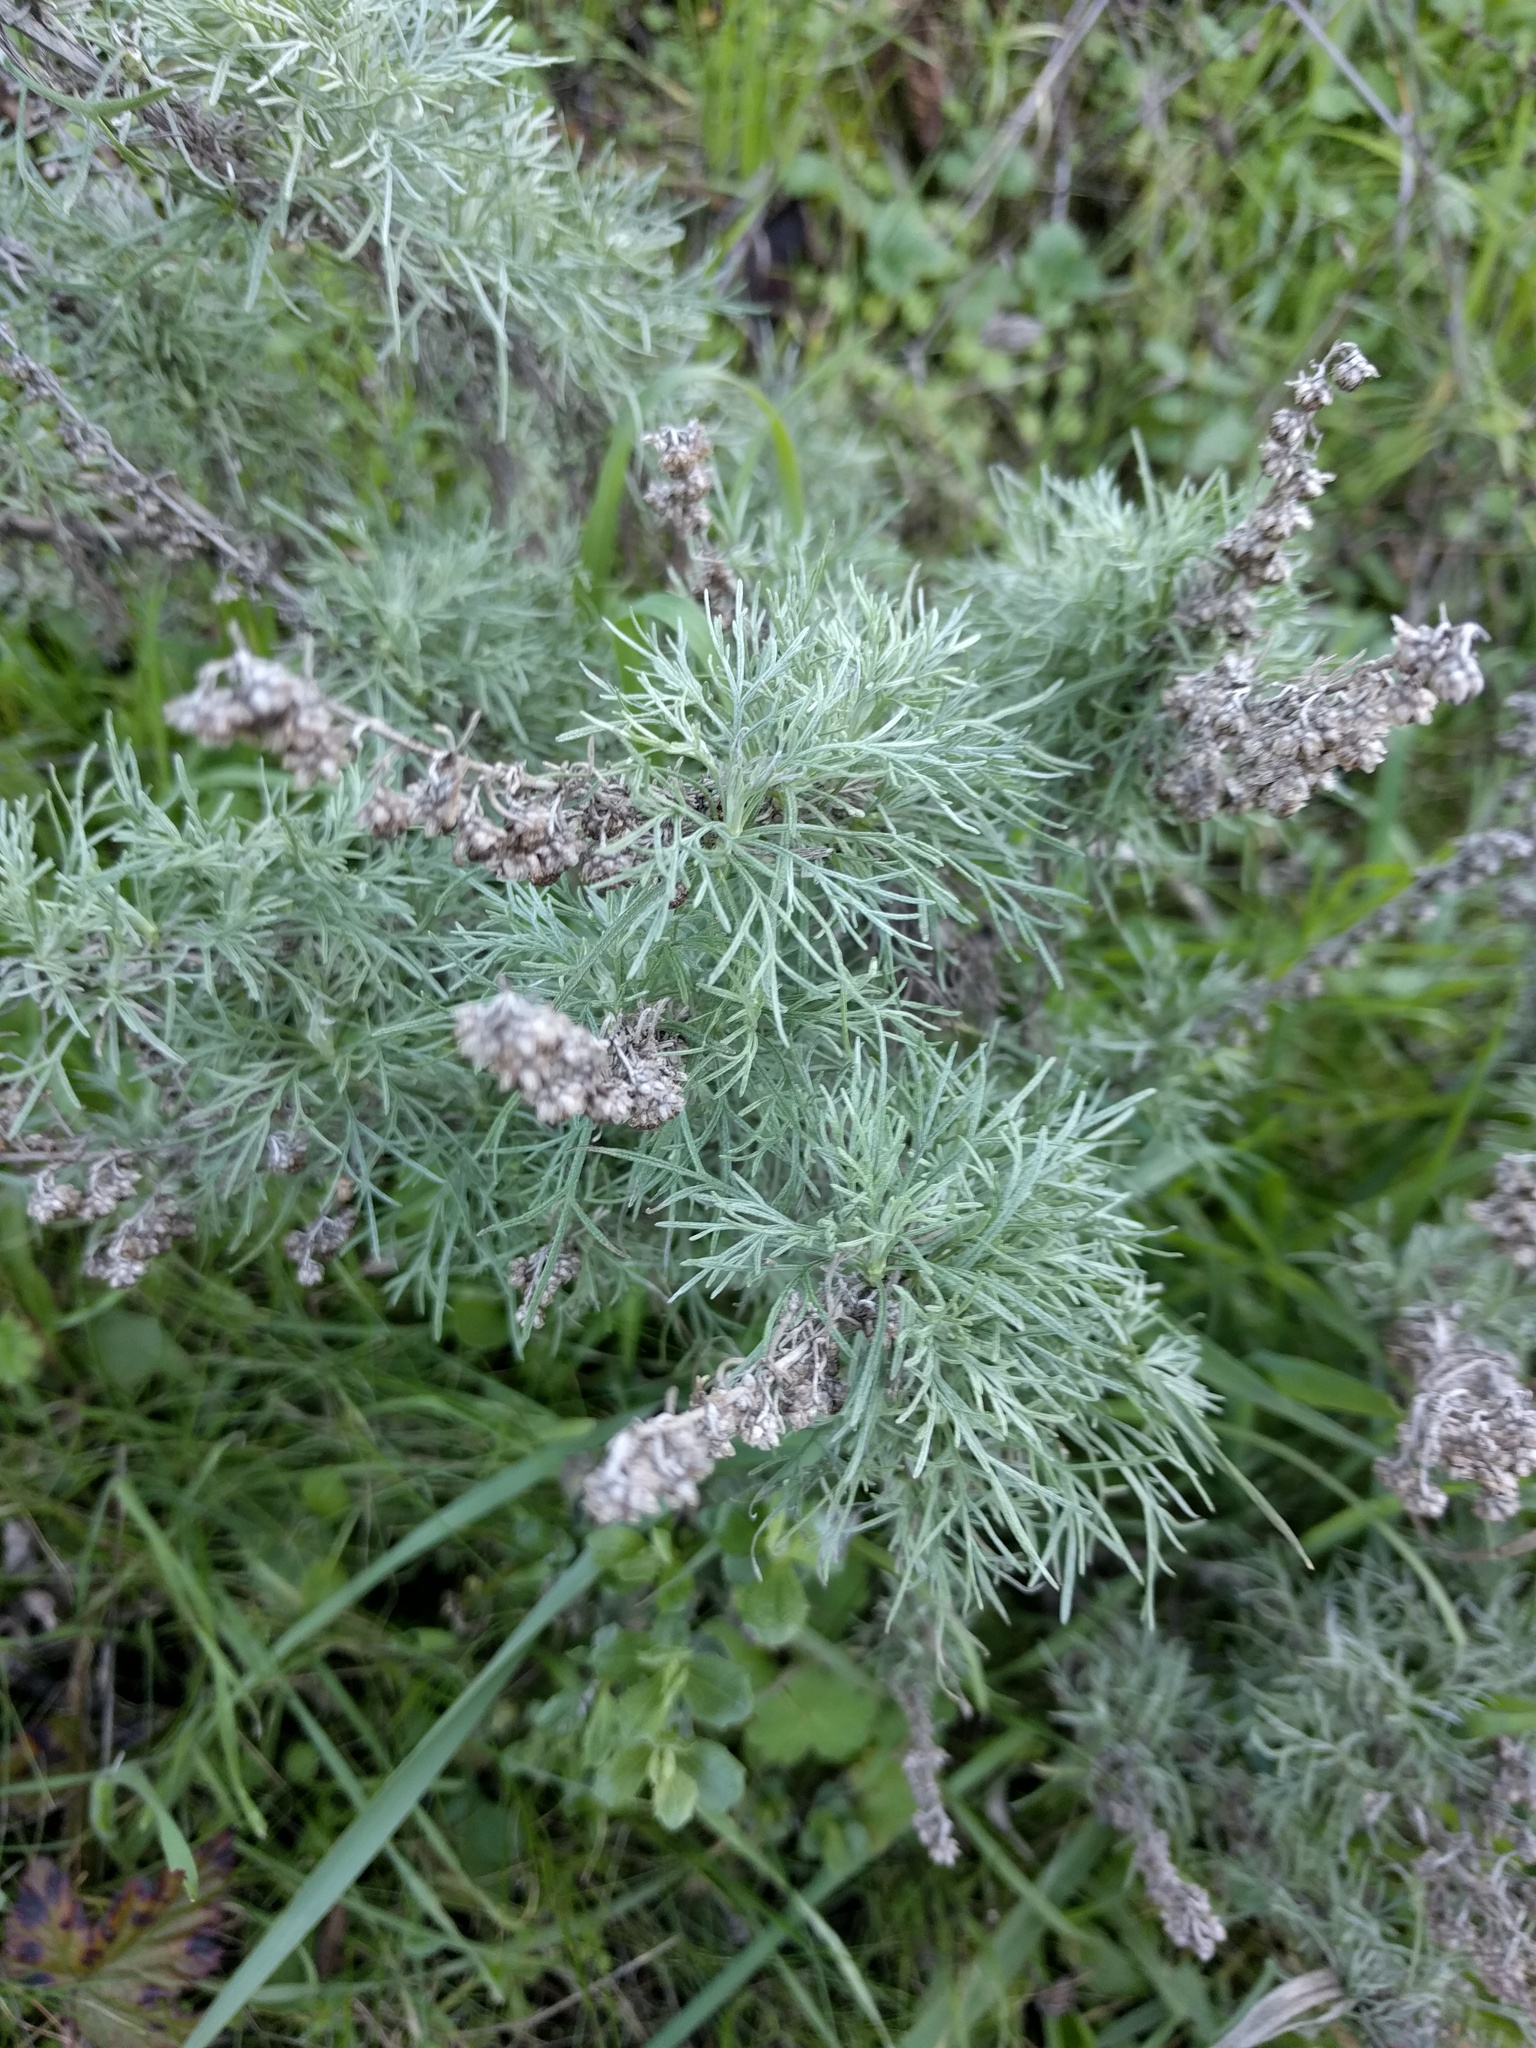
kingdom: Plantae
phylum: Tracheophyta
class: Magnoliopsida
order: Asterales
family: Asteraceae
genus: Artemisia
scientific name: Artemisia californica
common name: California sagebrush
